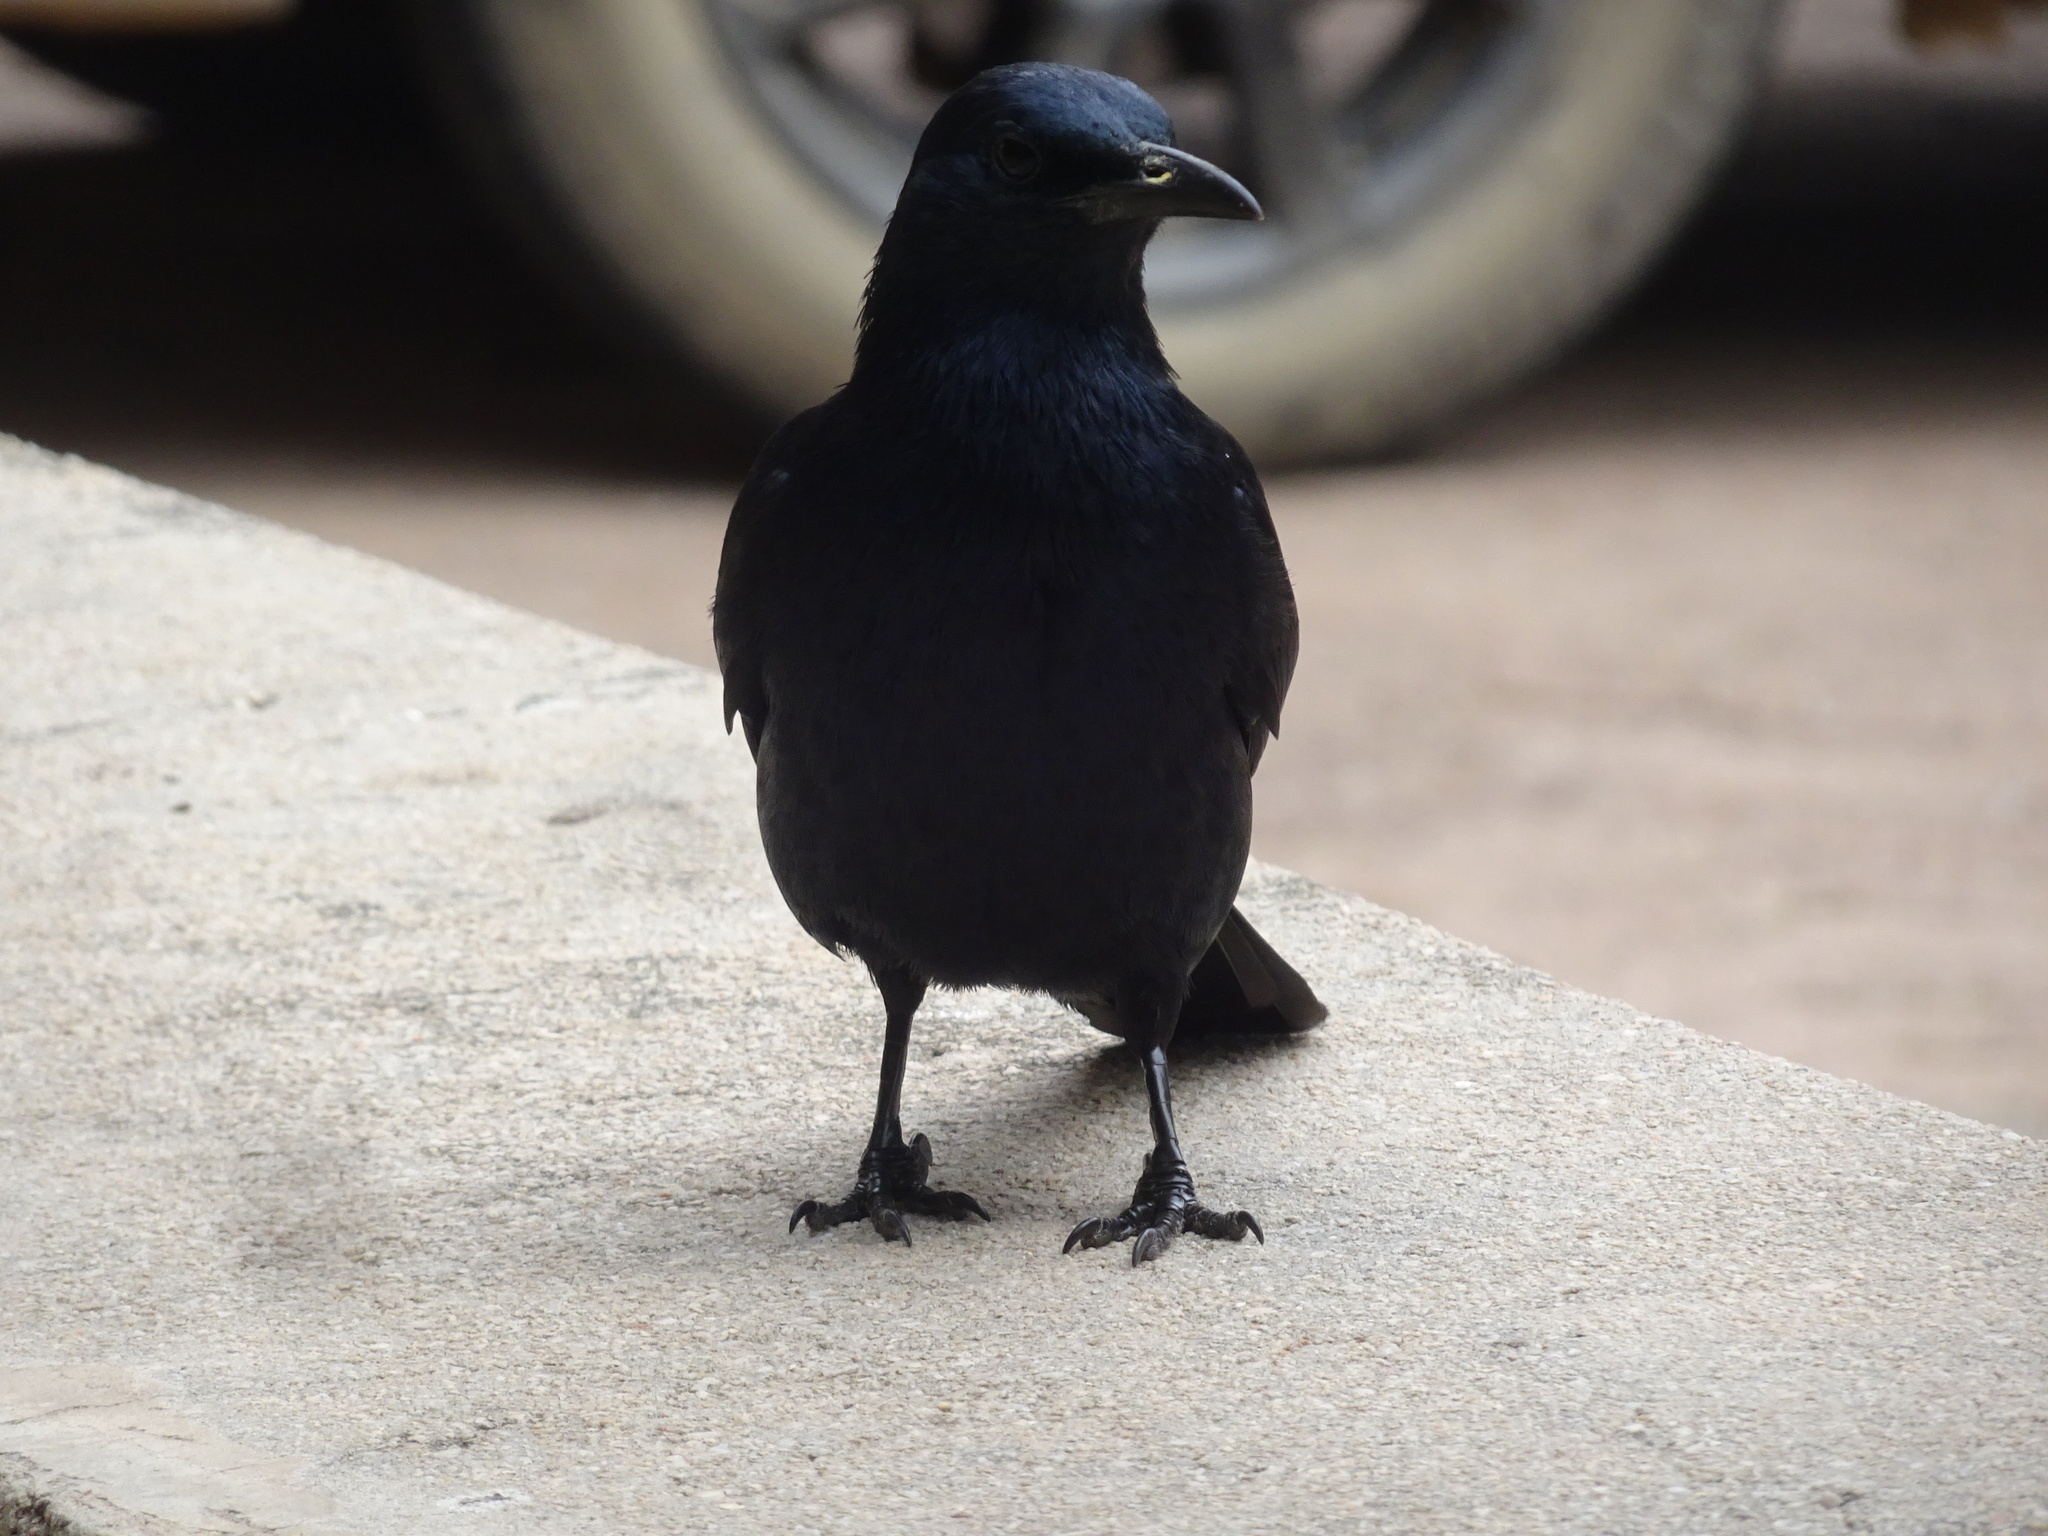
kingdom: Animalia
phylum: Chordata
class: Aves
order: Passeriformes
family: Sturnidae
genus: Onychognathus
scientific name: Onychognathus morio
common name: Red-winged starling
